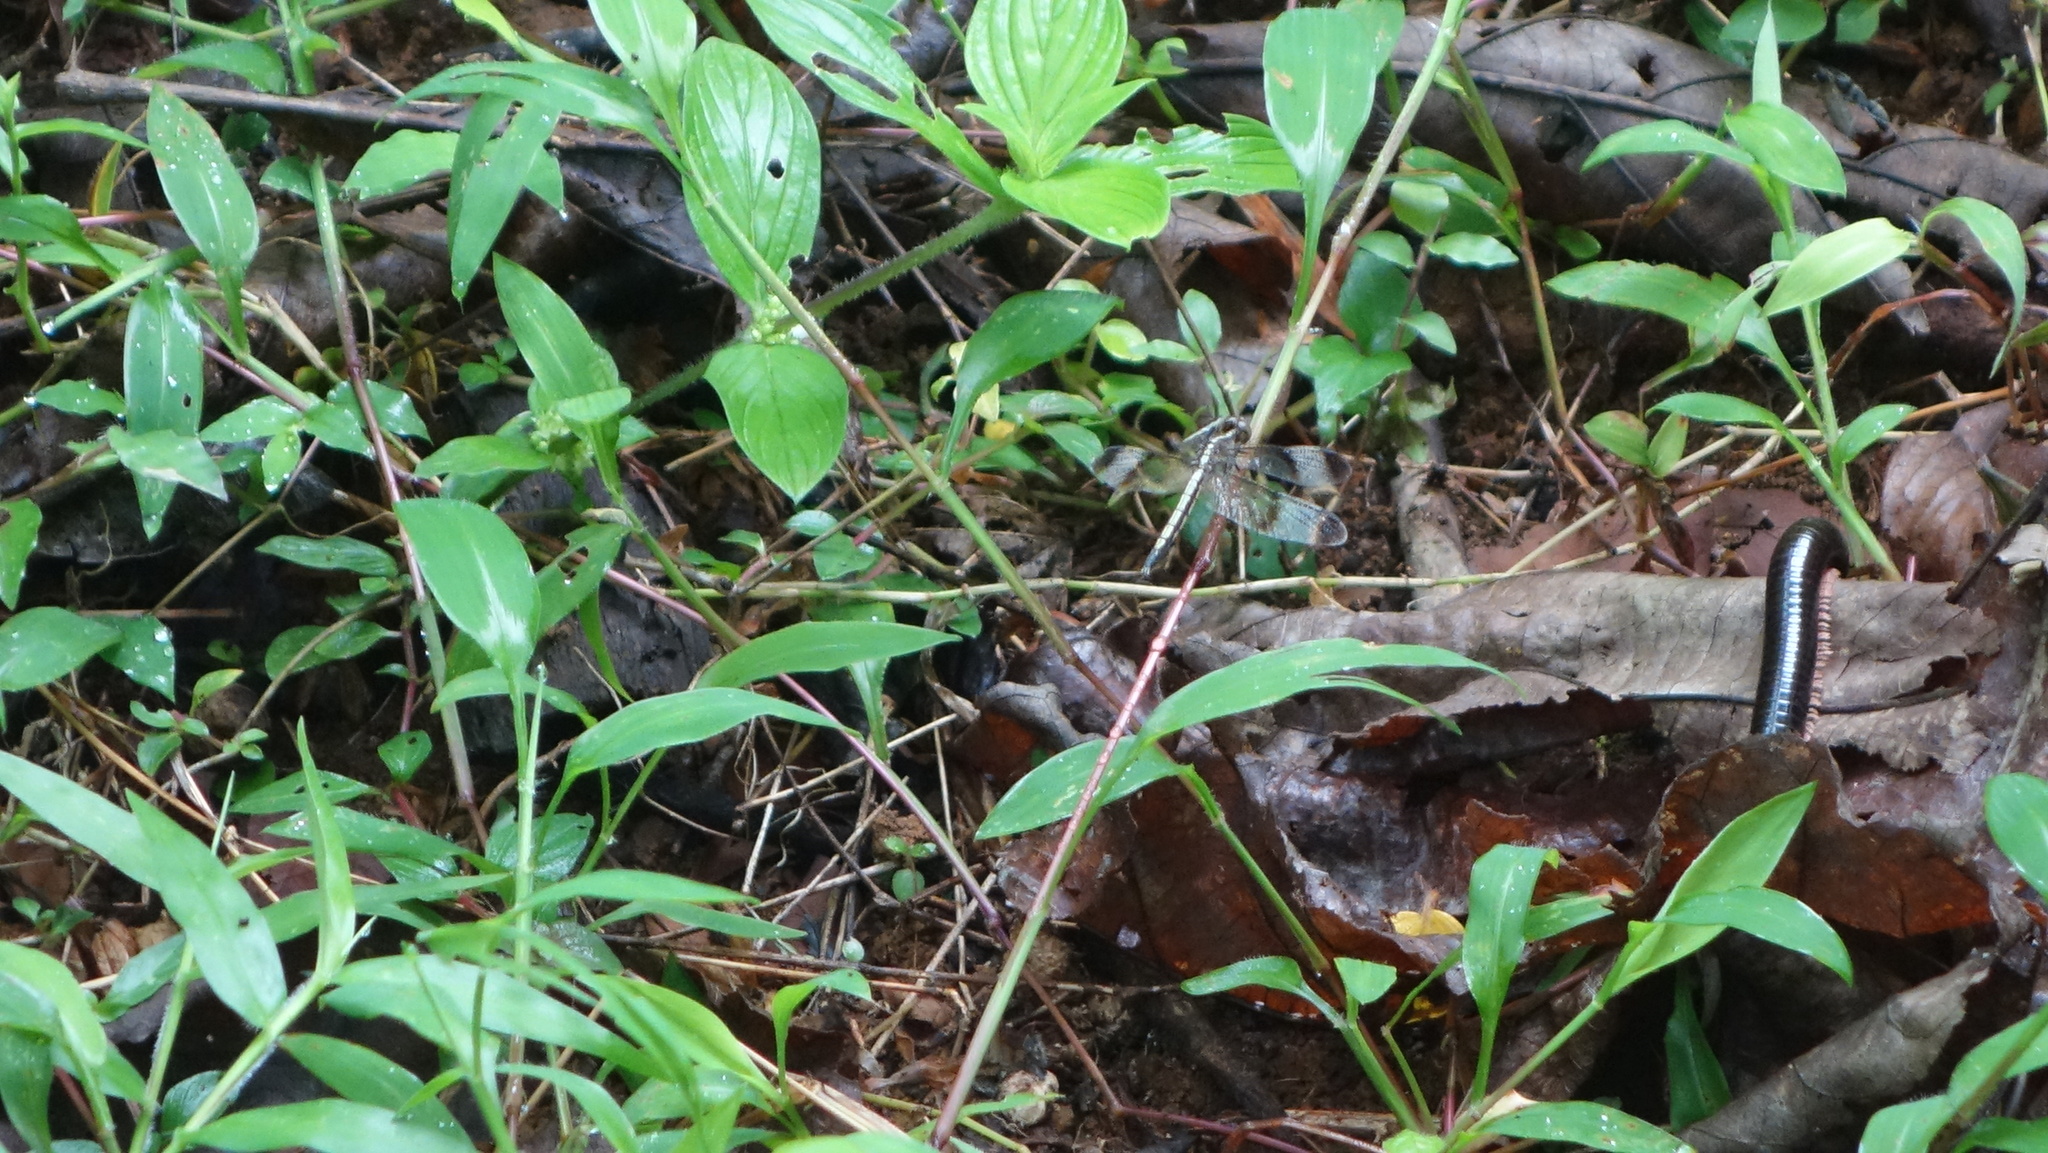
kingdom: Animalia
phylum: Arthropoda
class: Insecta
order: Odonata
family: Libellulidae
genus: Neurothemis
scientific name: Neurothemis tullia
